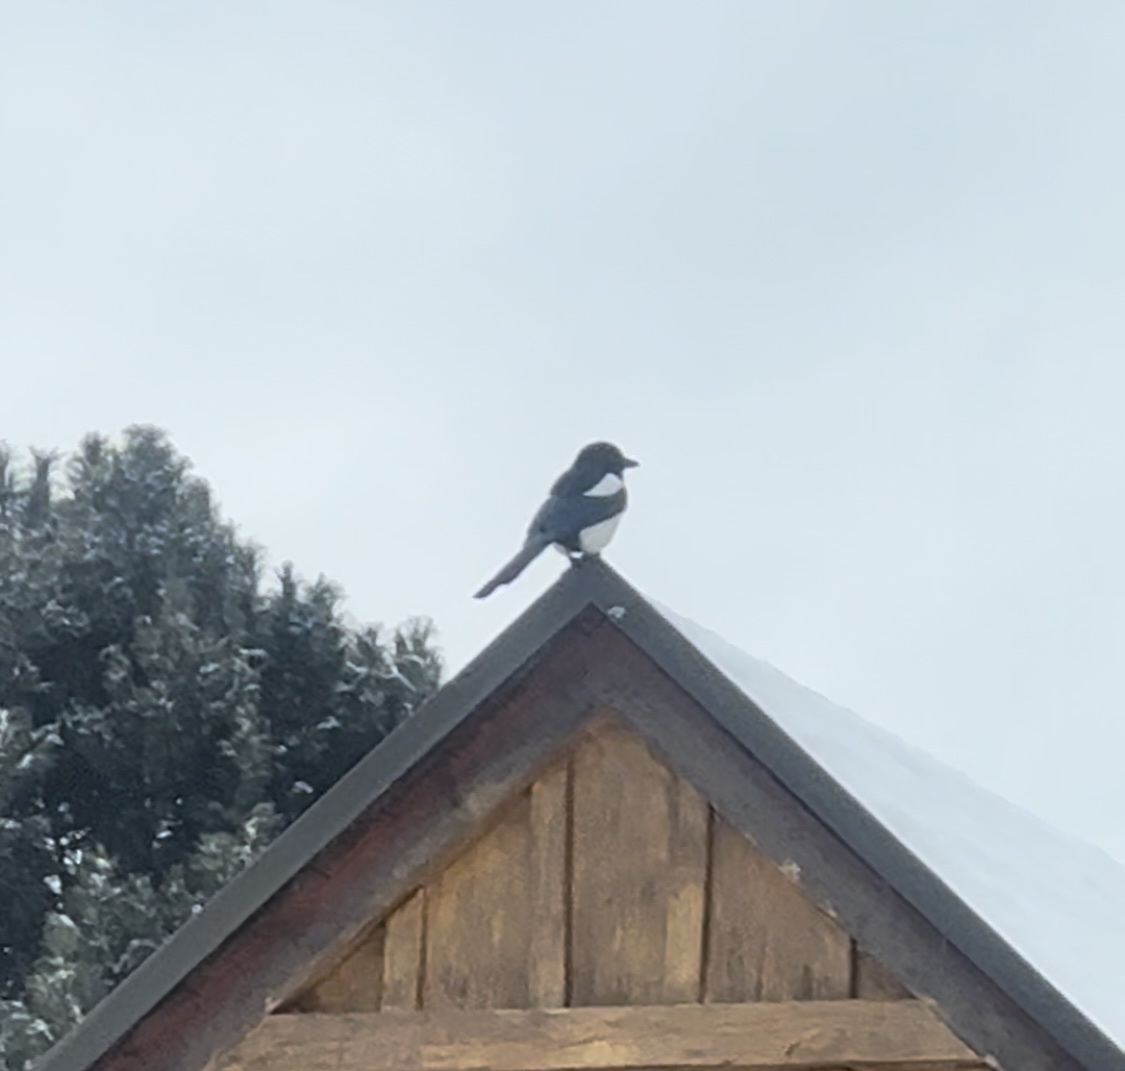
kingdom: Animalia
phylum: Chordata
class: Aves
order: Passeriformes
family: Corvidae
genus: Pica
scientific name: Pica pica
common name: Eurasian magpie
